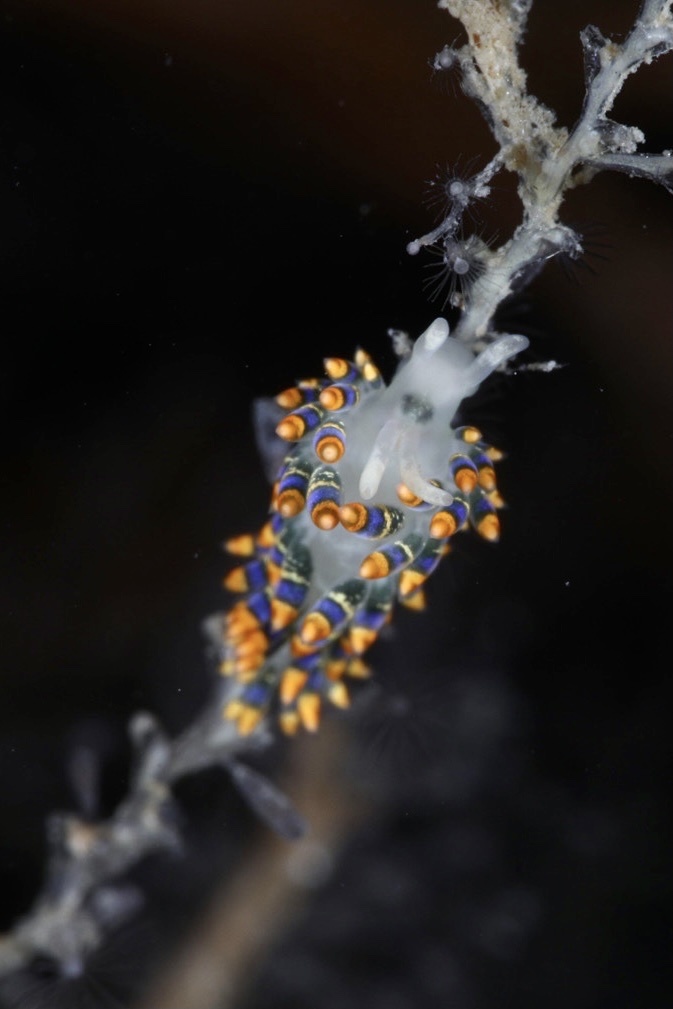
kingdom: Animalia
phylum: Mollusca
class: Gastropoda
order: Nudibranchia
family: Trinchesiidae
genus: Trinchesia
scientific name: Trinchesia cuanensis
